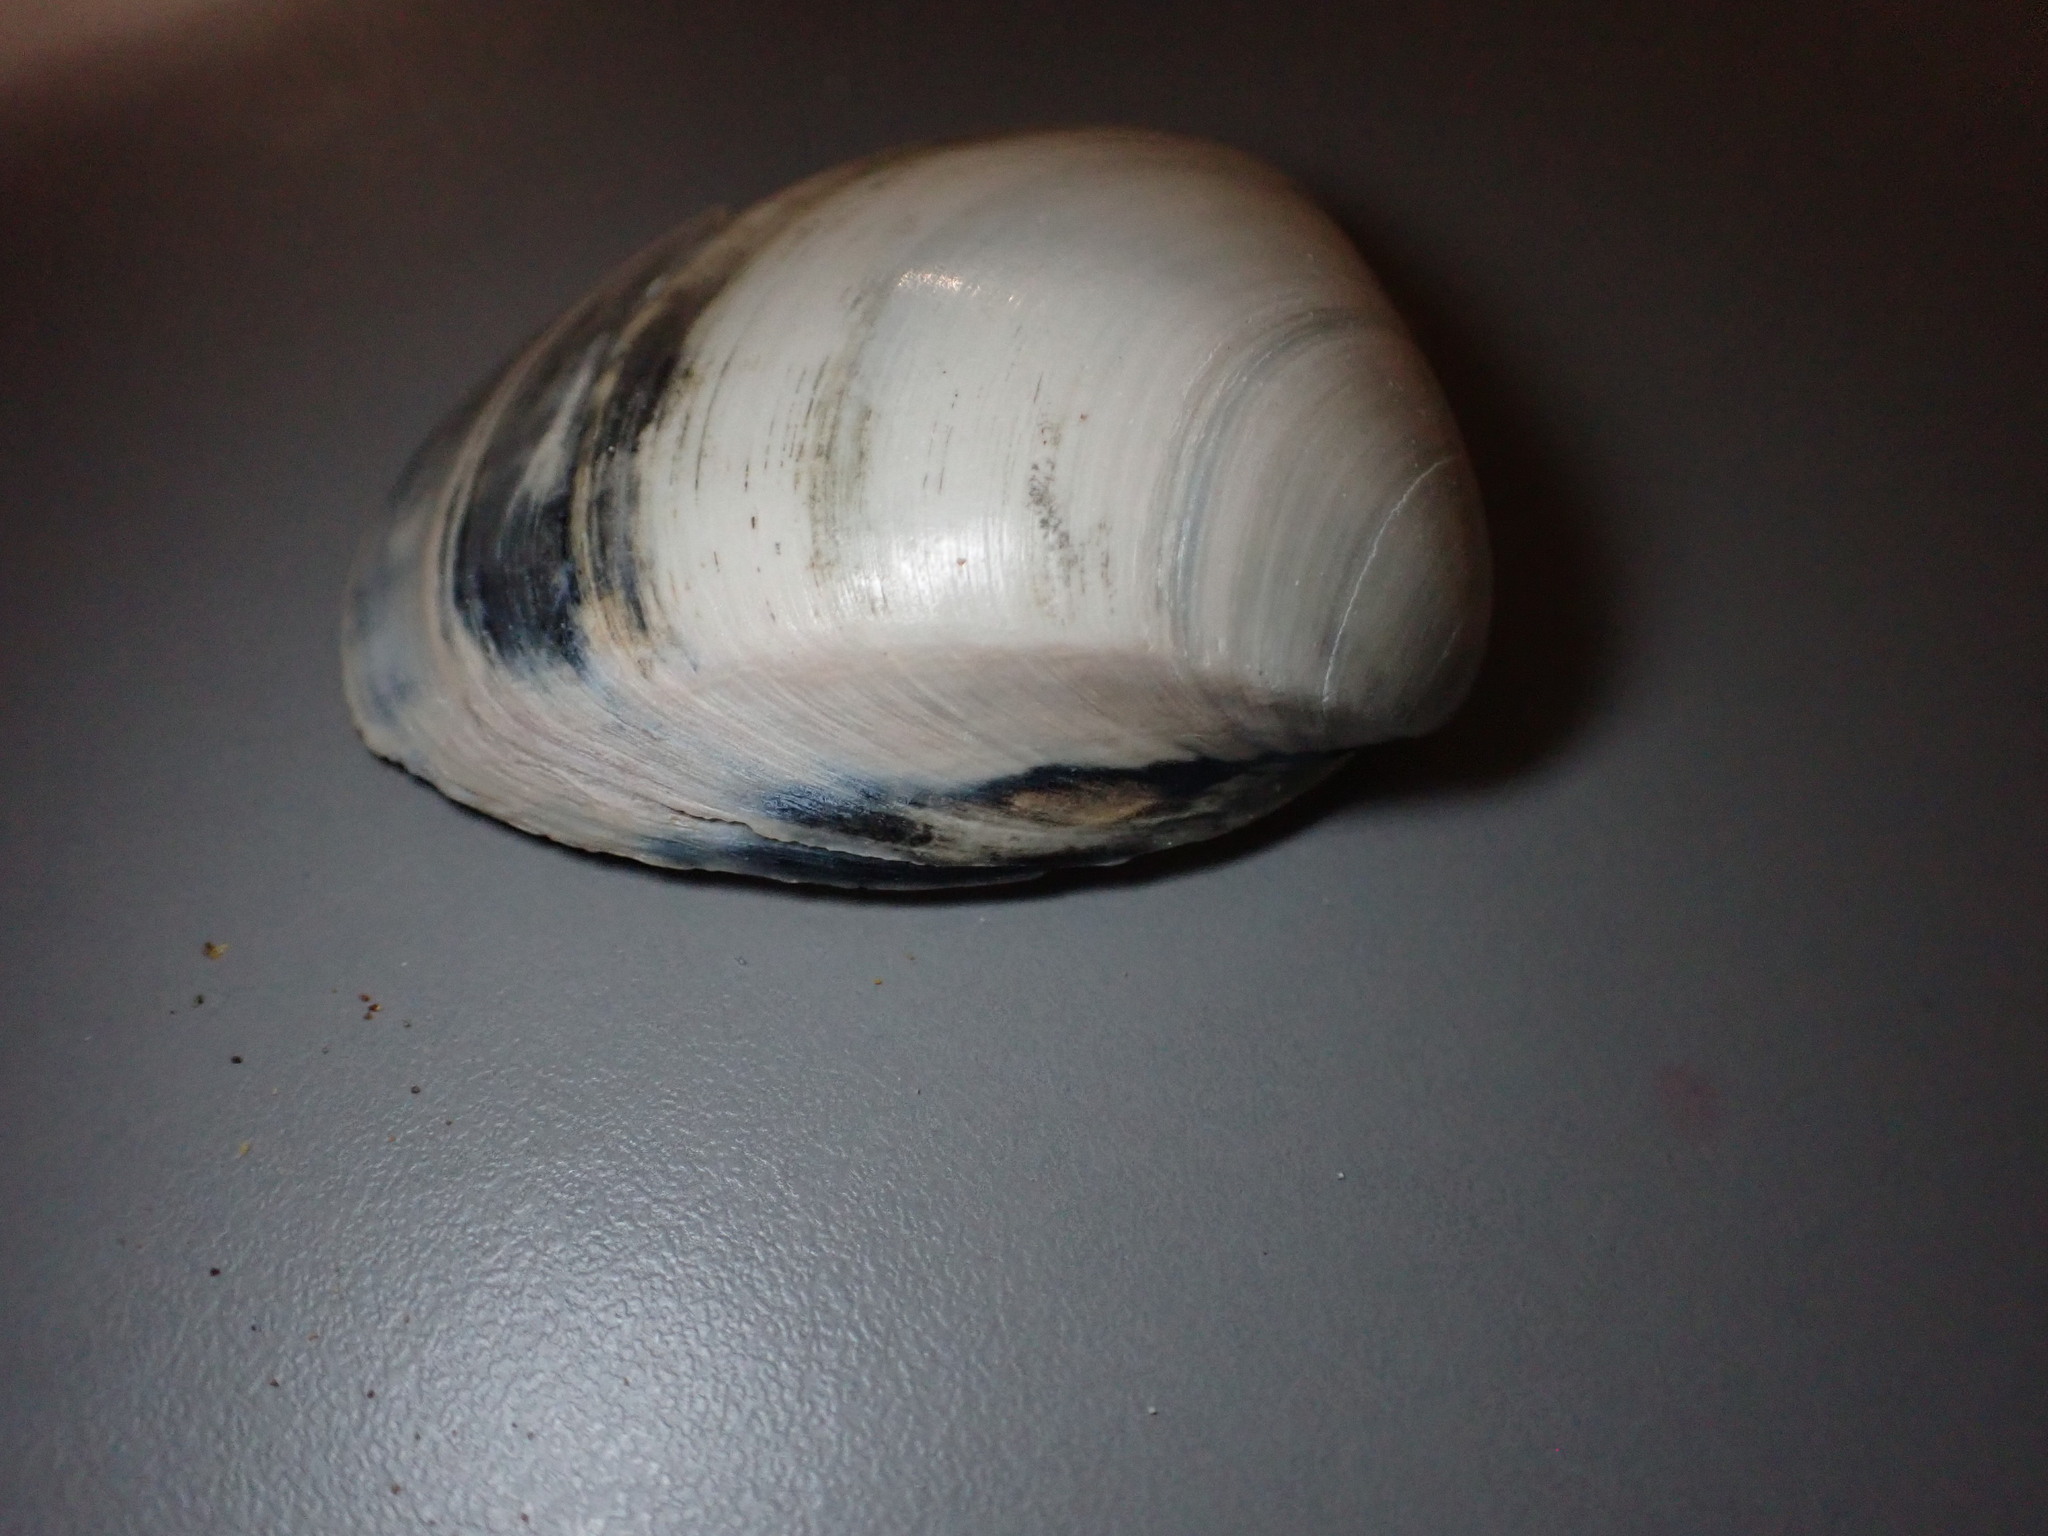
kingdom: Animalia
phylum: Mollusca
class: Bivalvia
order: Venerida
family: Mactridae
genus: Mactra
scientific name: Mactra stultorum
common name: Rayed trough shell
